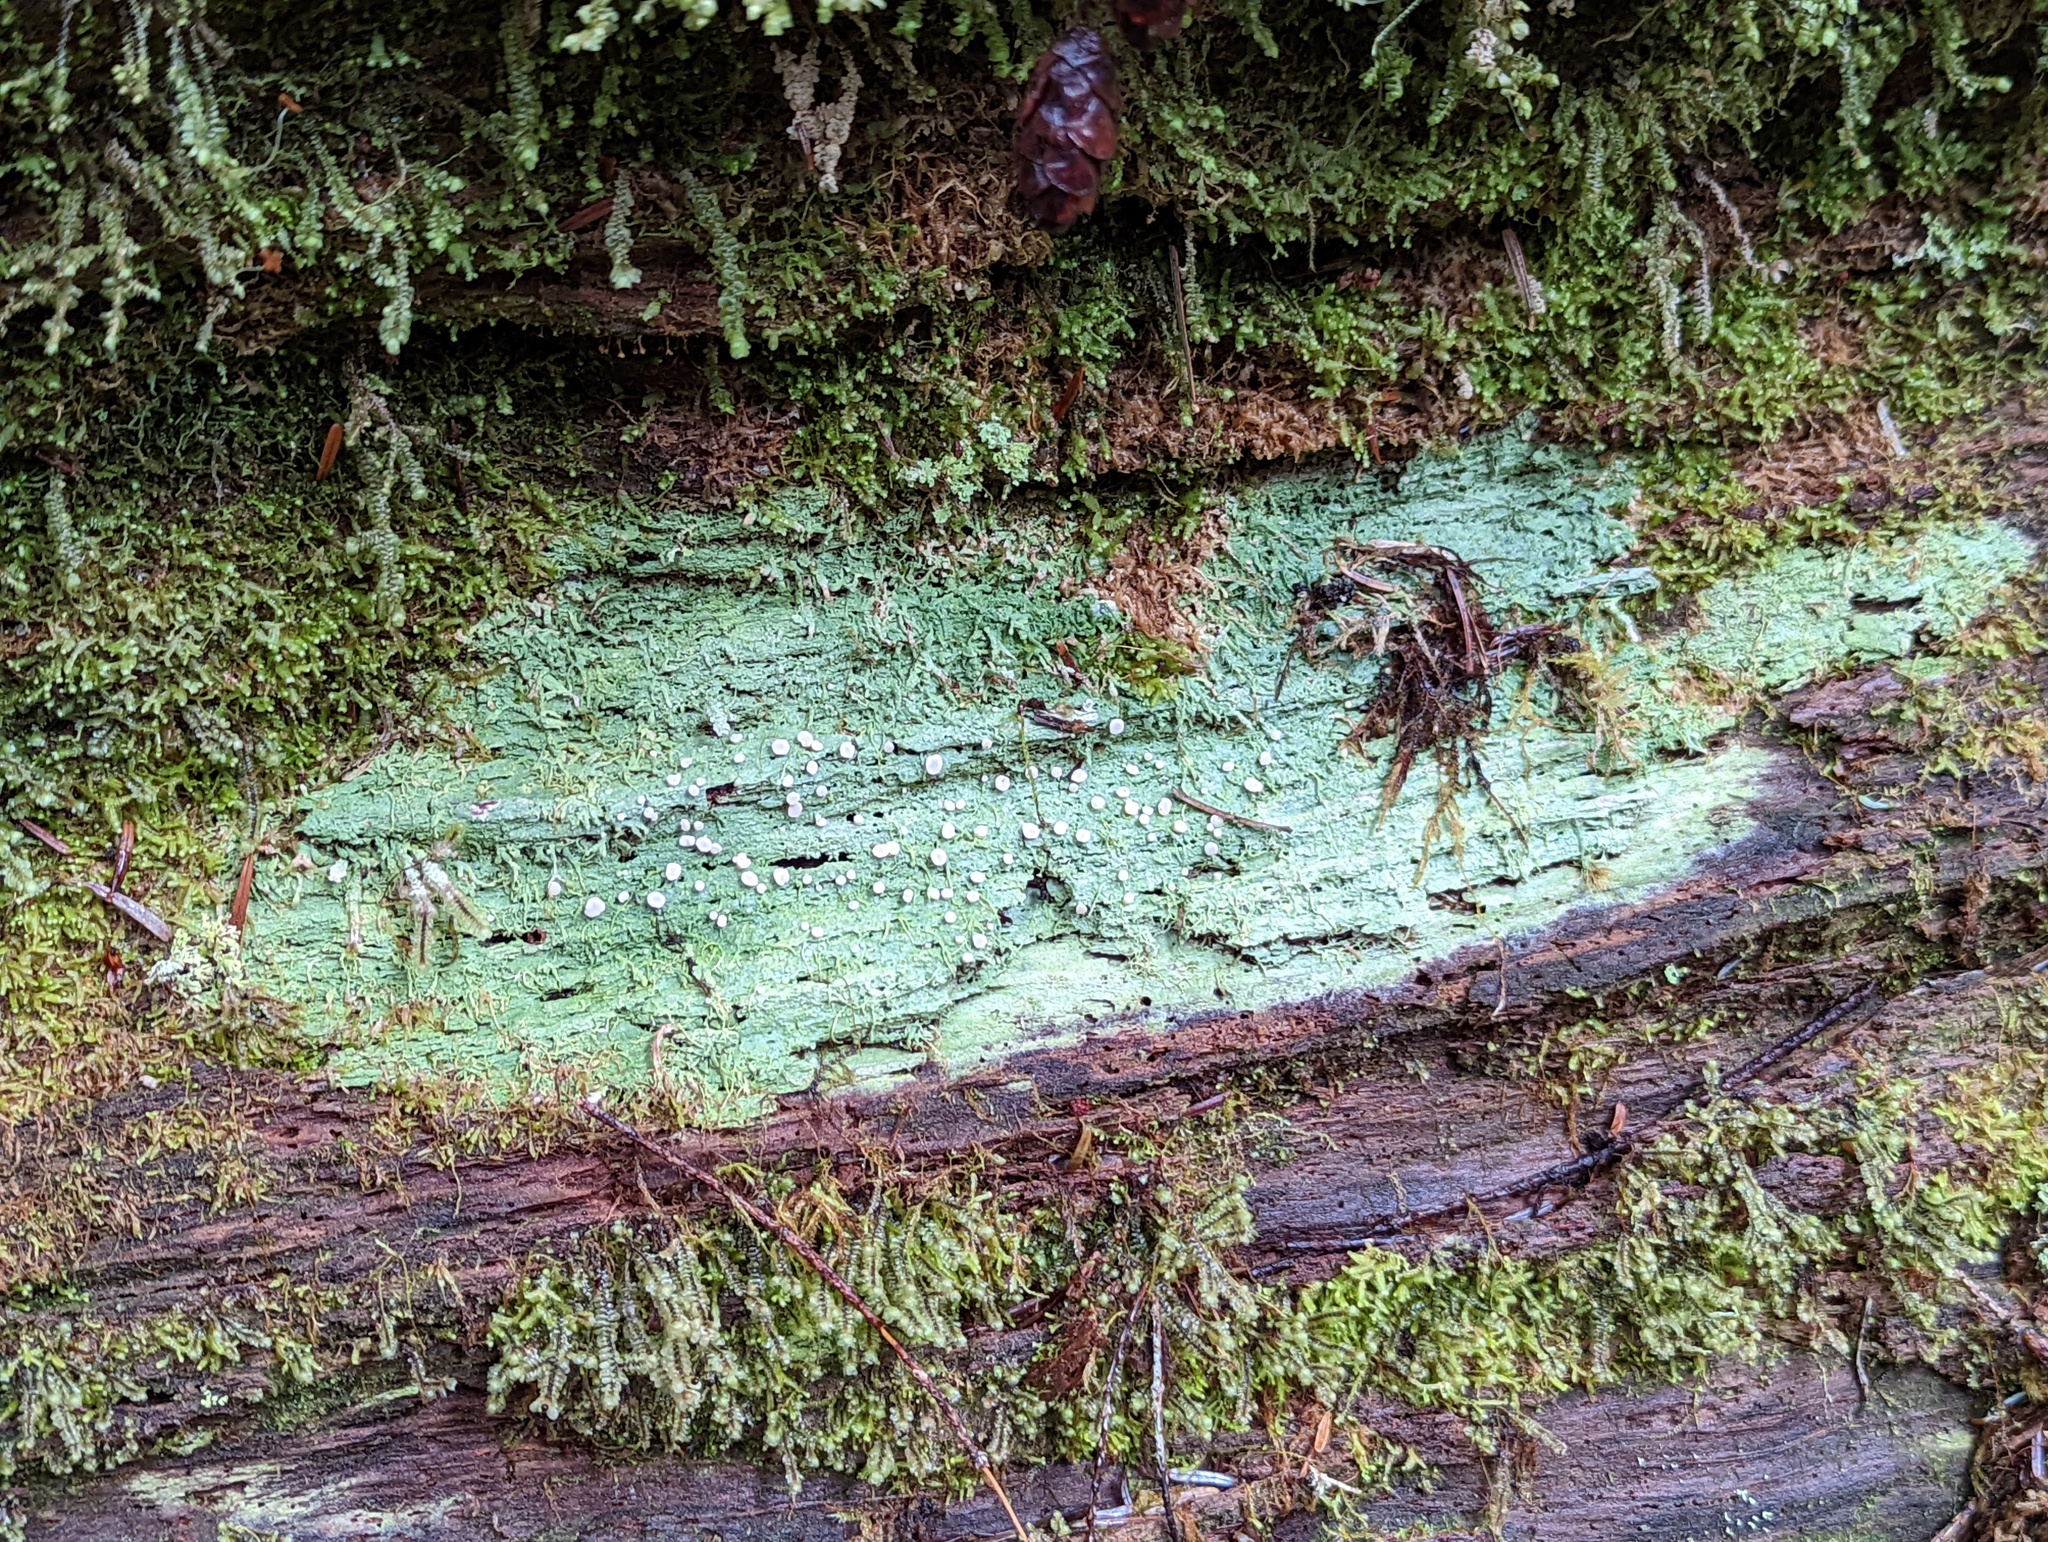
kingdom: Fungi
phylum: Ascomycota
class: Lecanoromycetes
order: Pertusariales
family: Icmadophilaceae
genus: Icmadophila
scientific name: Icmadophila ericetorum
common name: Candy lichen
